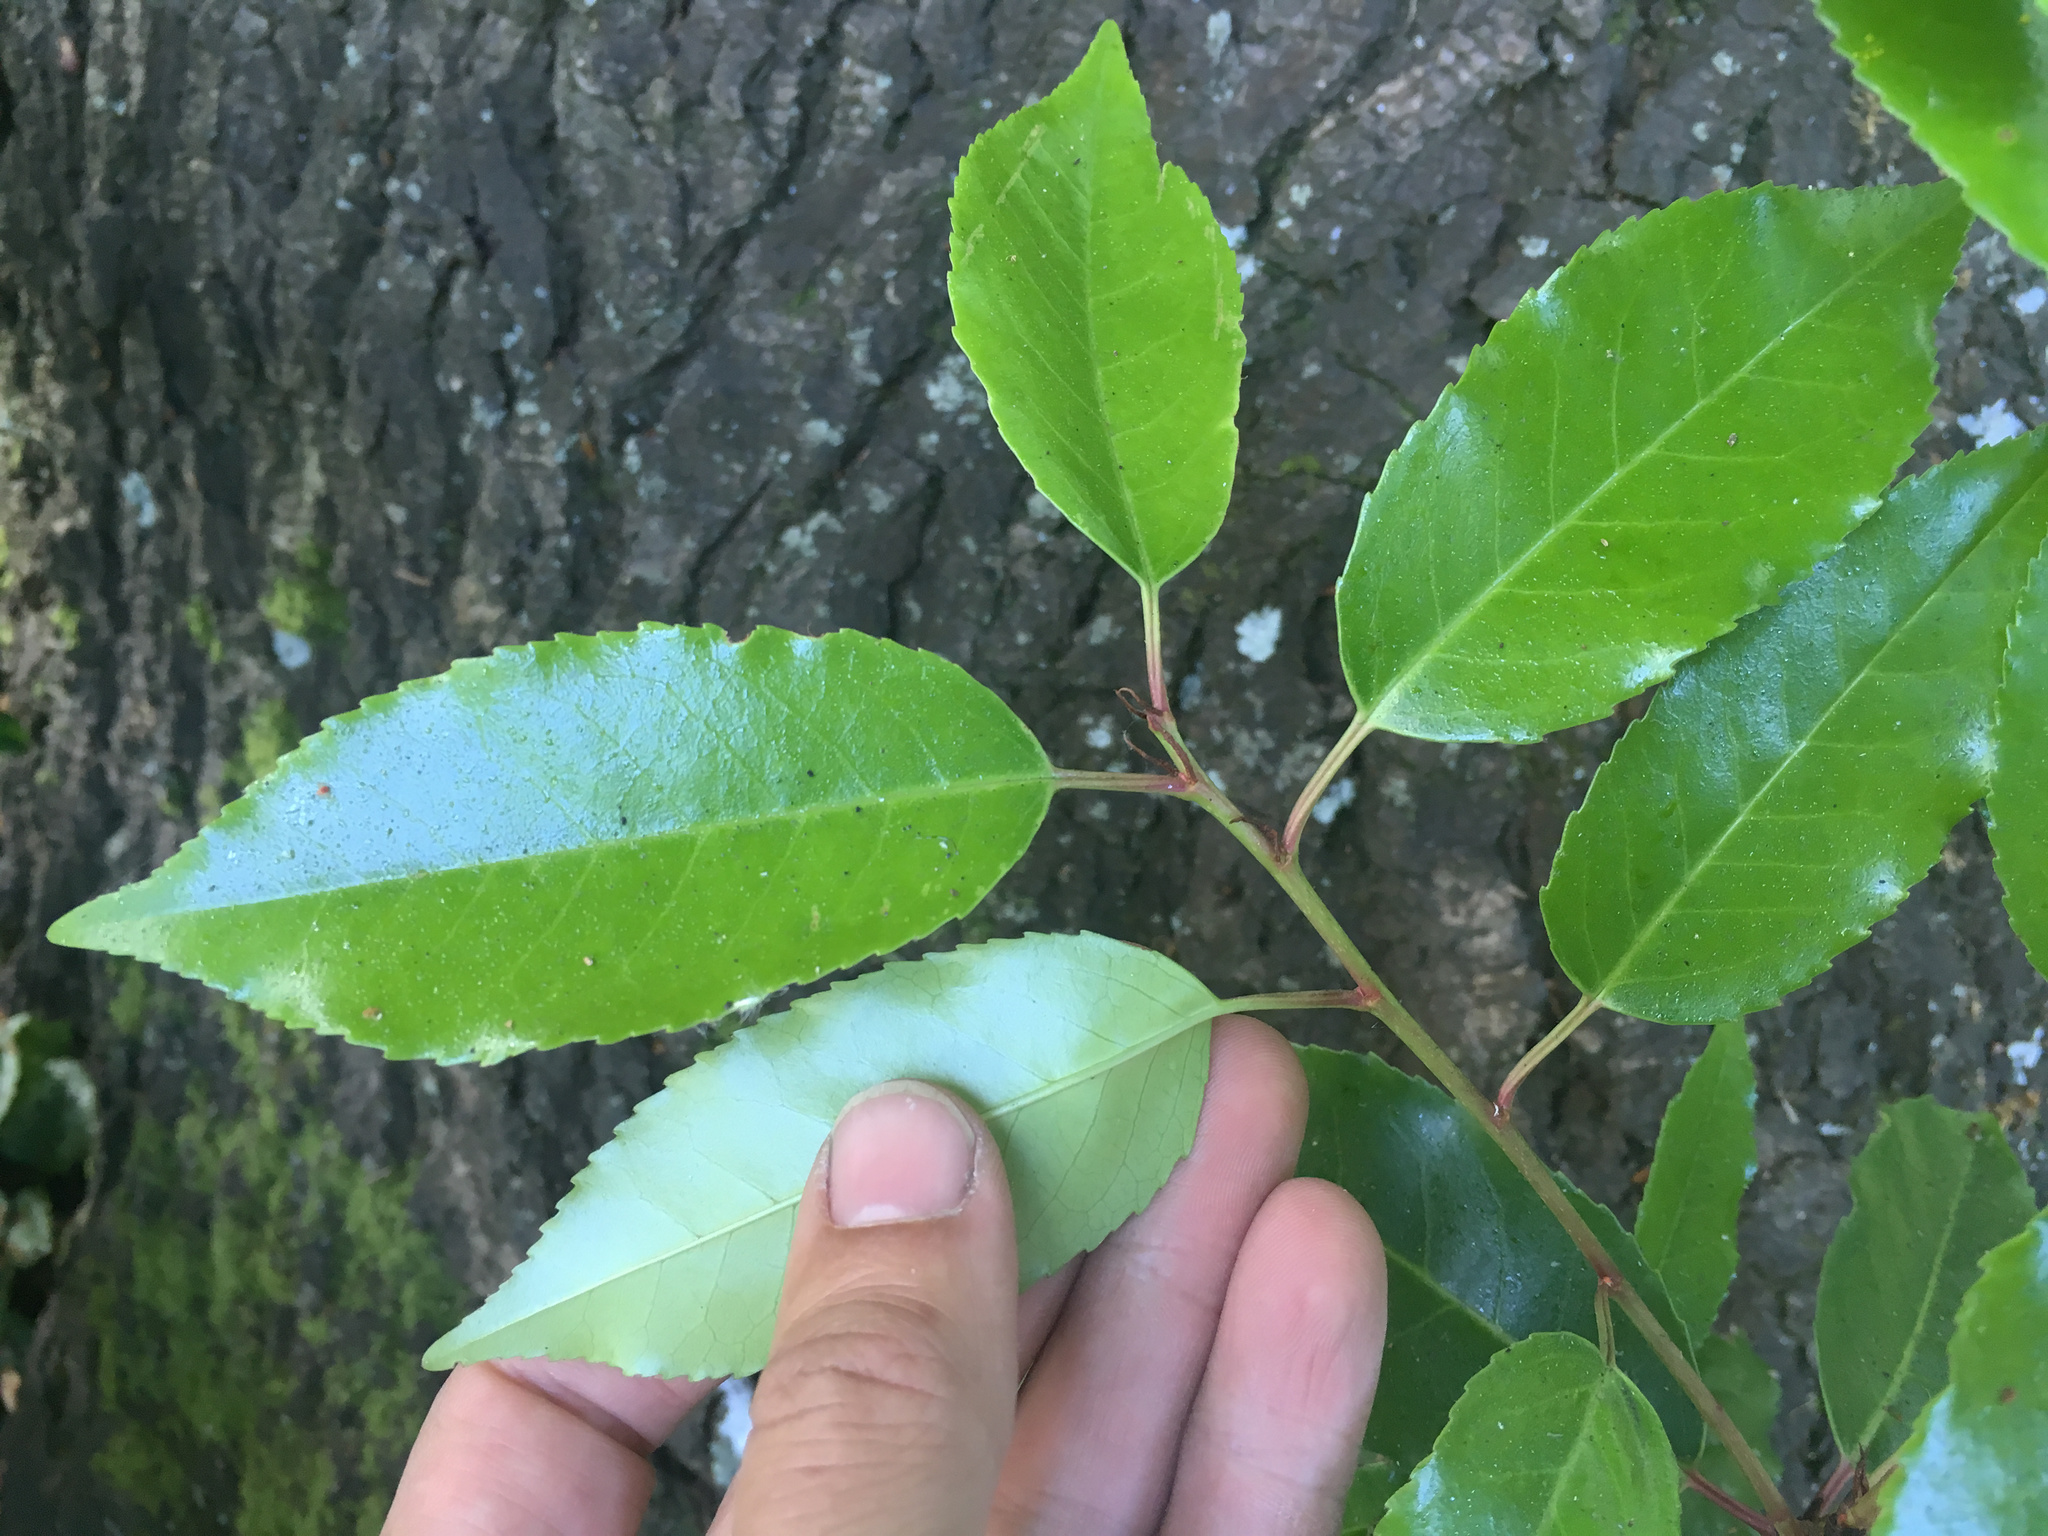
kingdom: Plantae
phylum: Tracheophyta
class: Magnoliopsida
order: Rosales
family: Rosaceae
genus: Prunus
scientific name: Prunus lusitanica
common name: Portugal laurel
